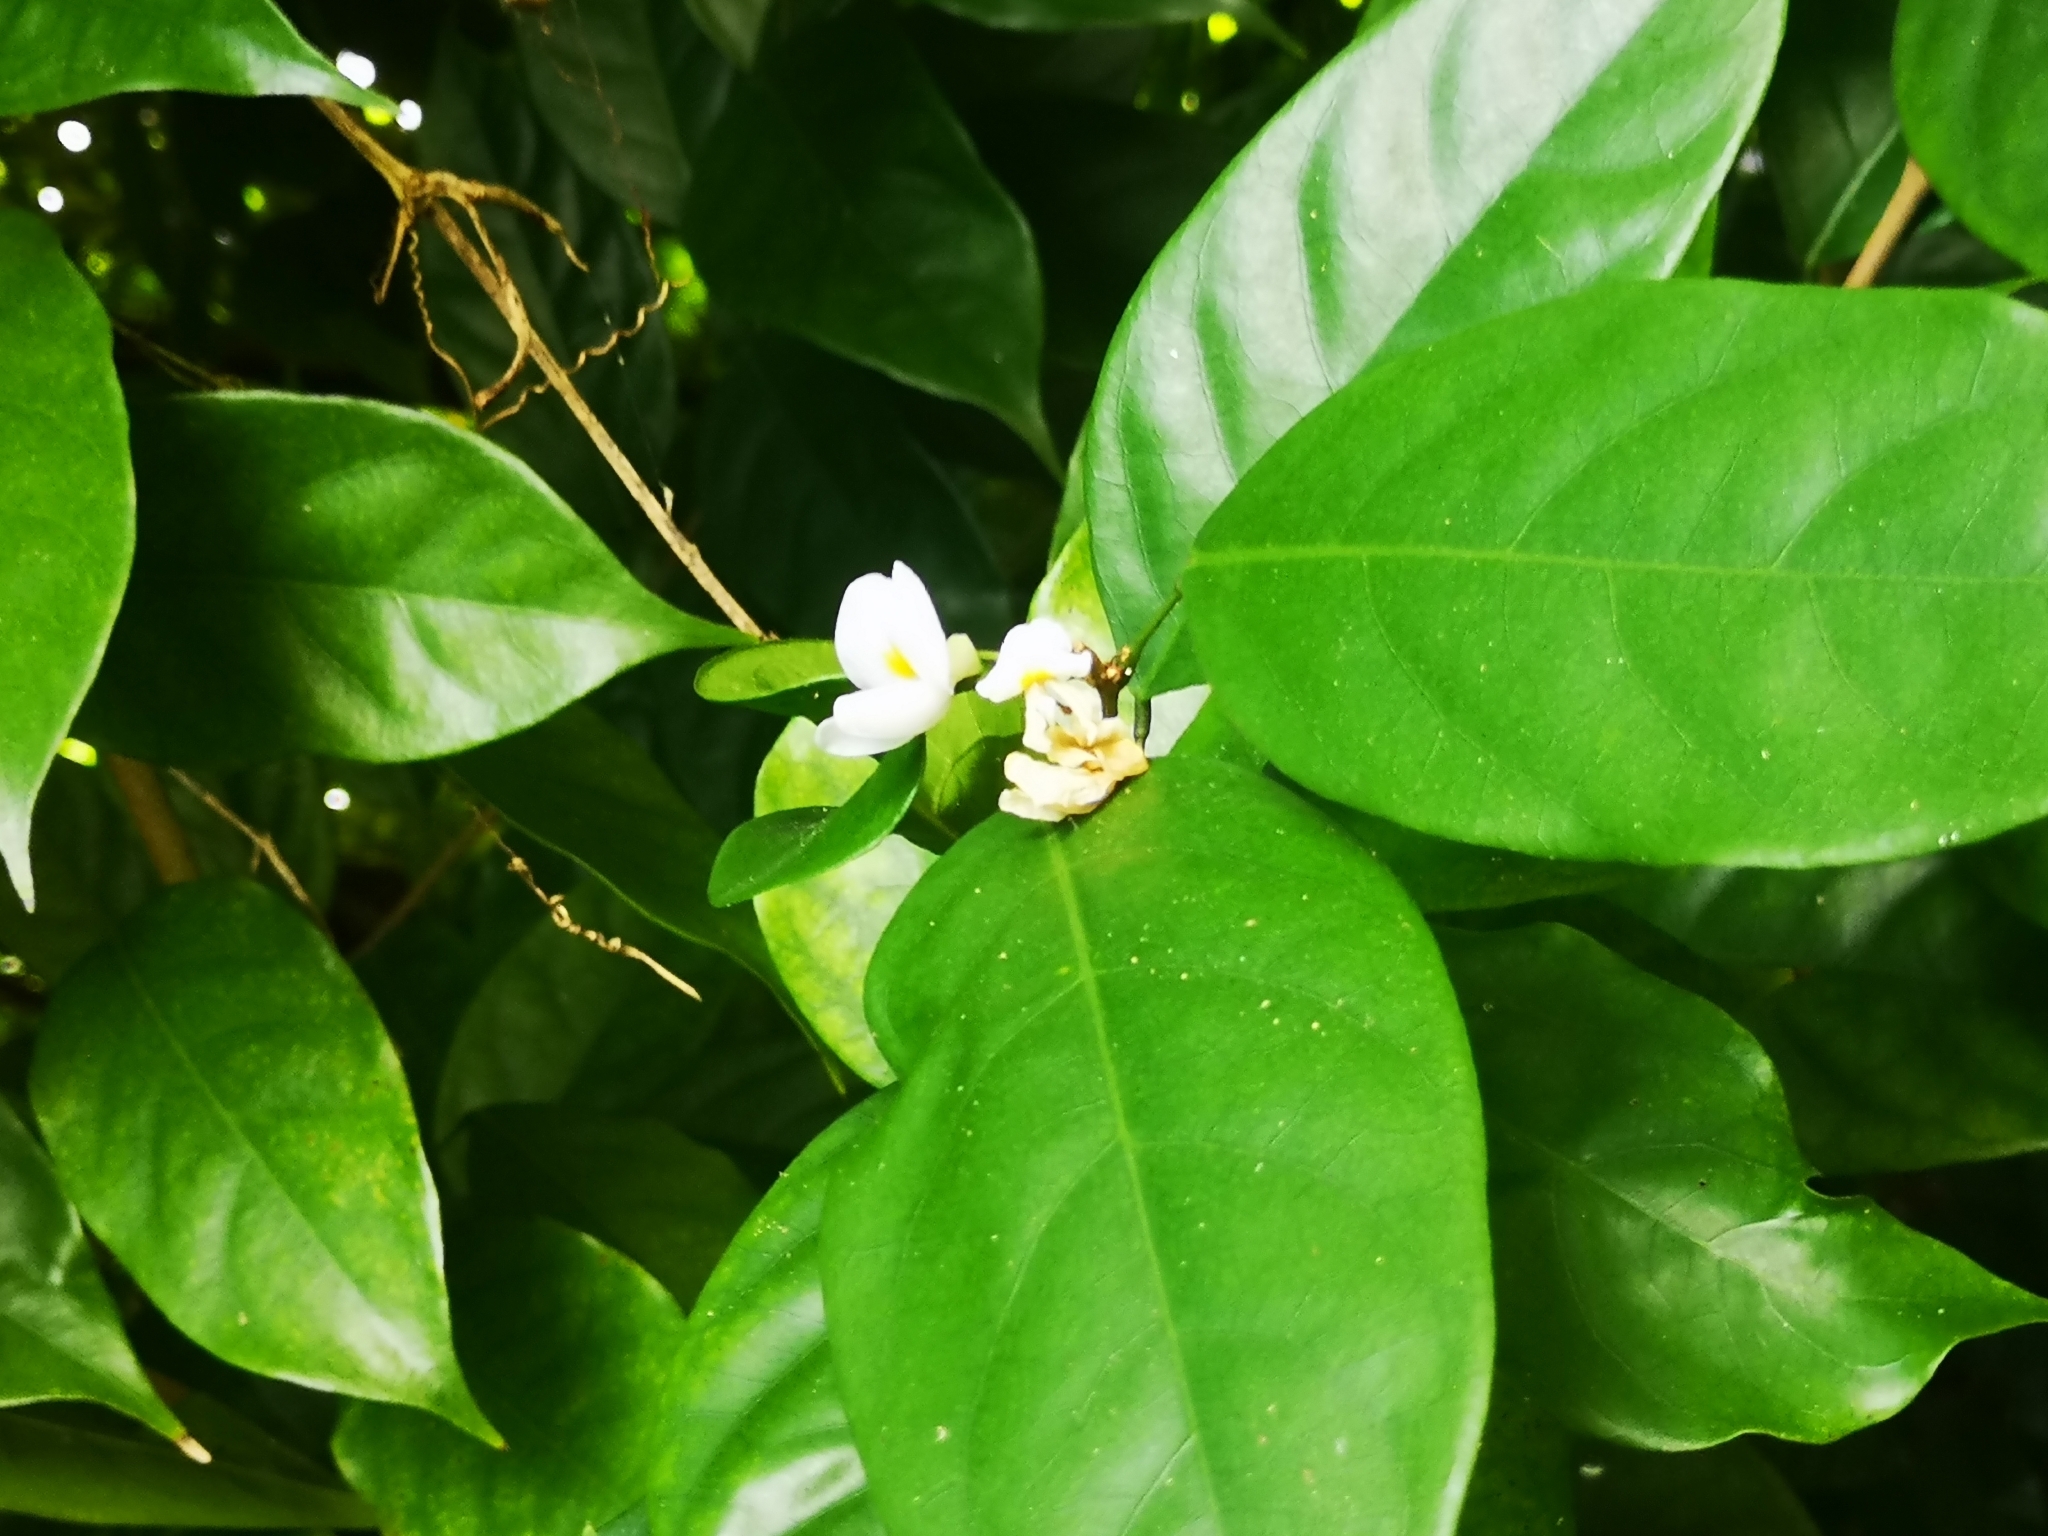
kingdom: Plantae
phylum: Tracheophyta
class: Magnoliopsida
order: Fabales
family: Fabaceae
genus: Baphia
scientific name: Baphia nitida
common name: Camwood
